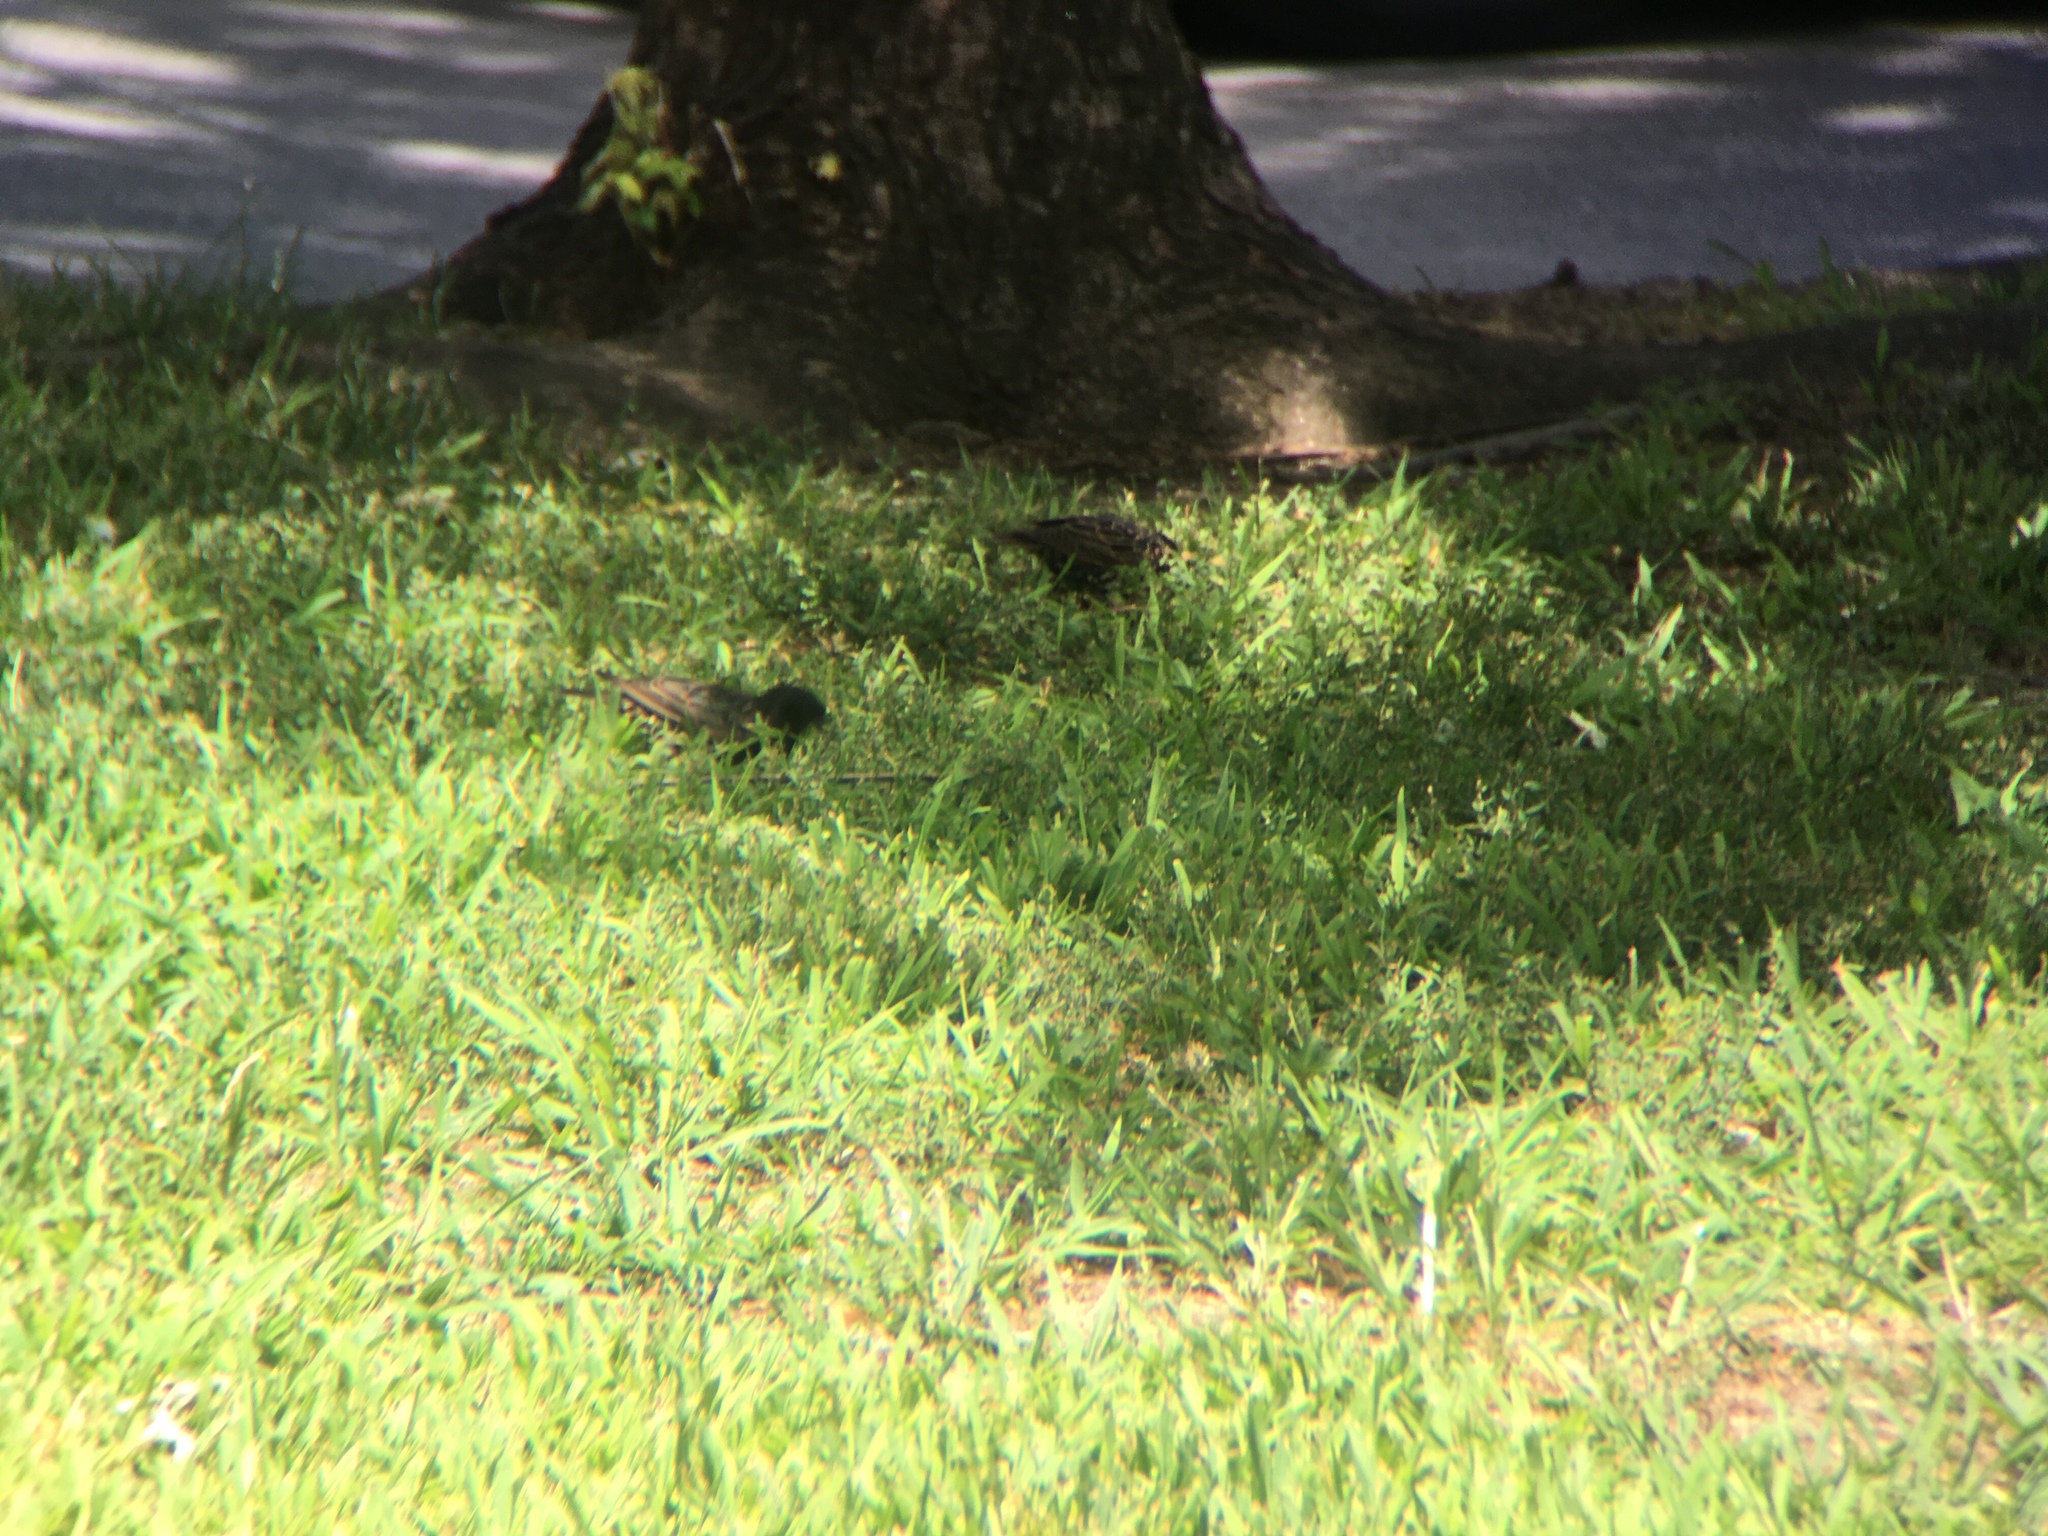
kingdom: Animalia
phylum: Chordata
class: Aves
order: Passeriformes
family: Sturnidae
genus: Sturnus
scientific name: Sturnus vulgaris
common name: Common starling
